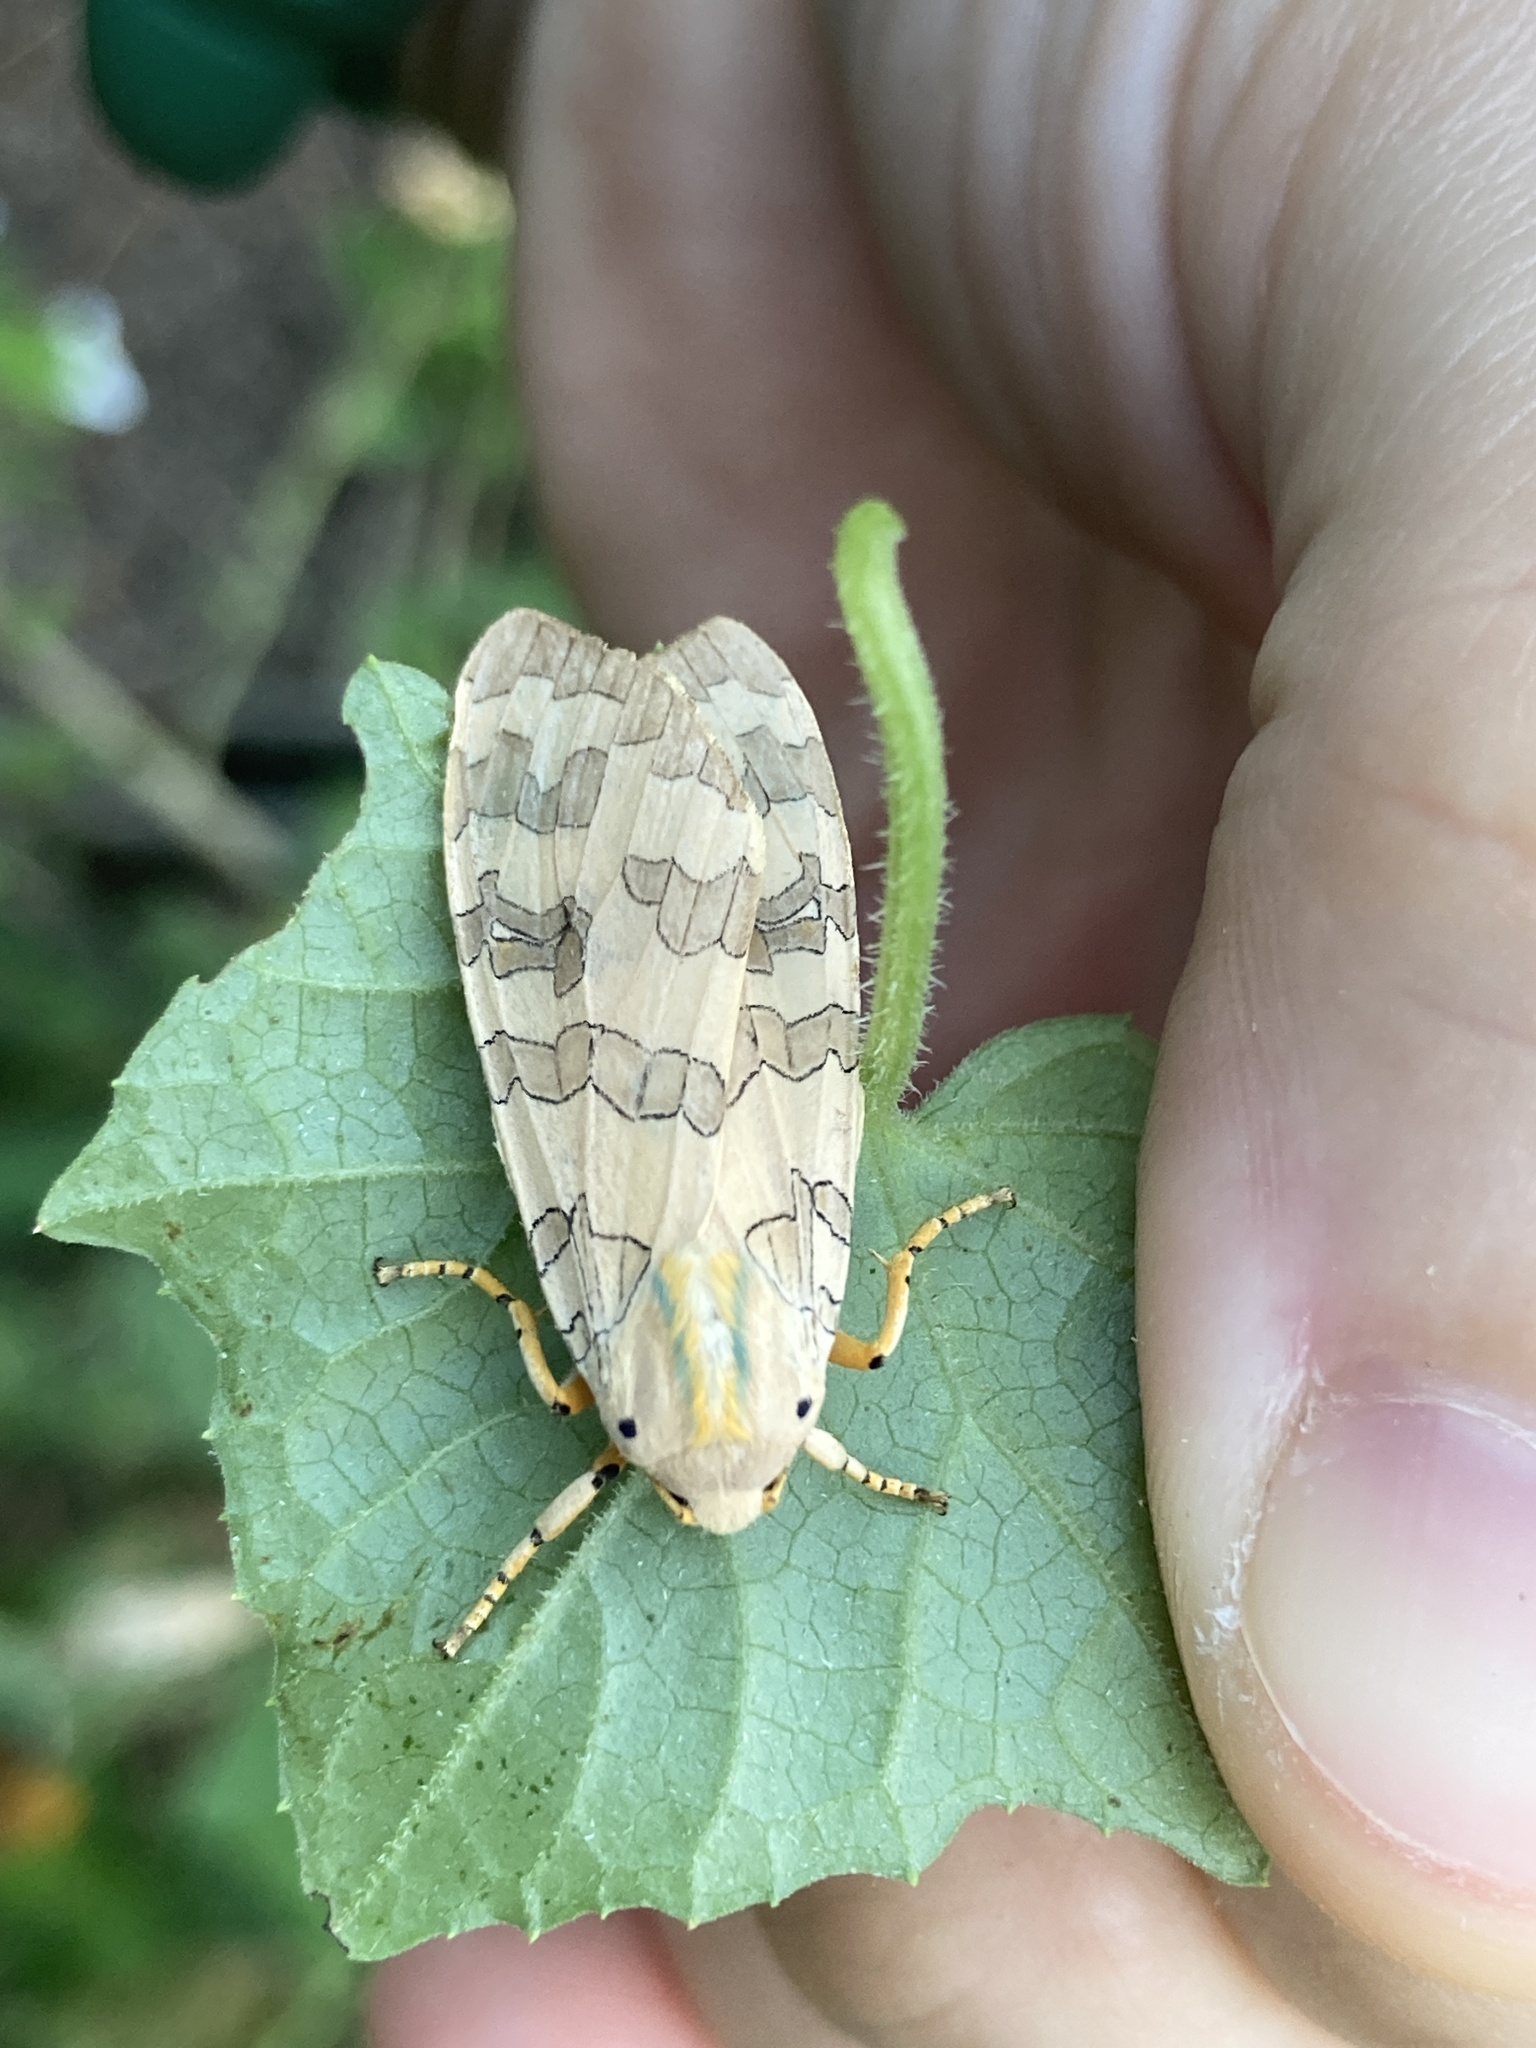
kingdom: Animalia
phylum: Arthropoda
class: Insecta
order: Lepidoptera
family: Erebidae
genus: Halysidota
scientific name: Halysidota
